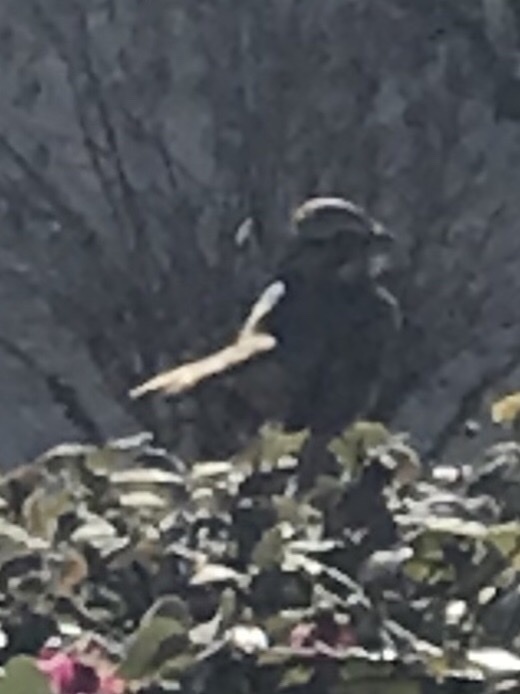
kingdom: Animalia
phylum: Chordata
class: Aves
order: Passeriformes
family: Passerellidae
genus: Melospiza
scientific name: Melospiza melodia
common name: Song sparrow
